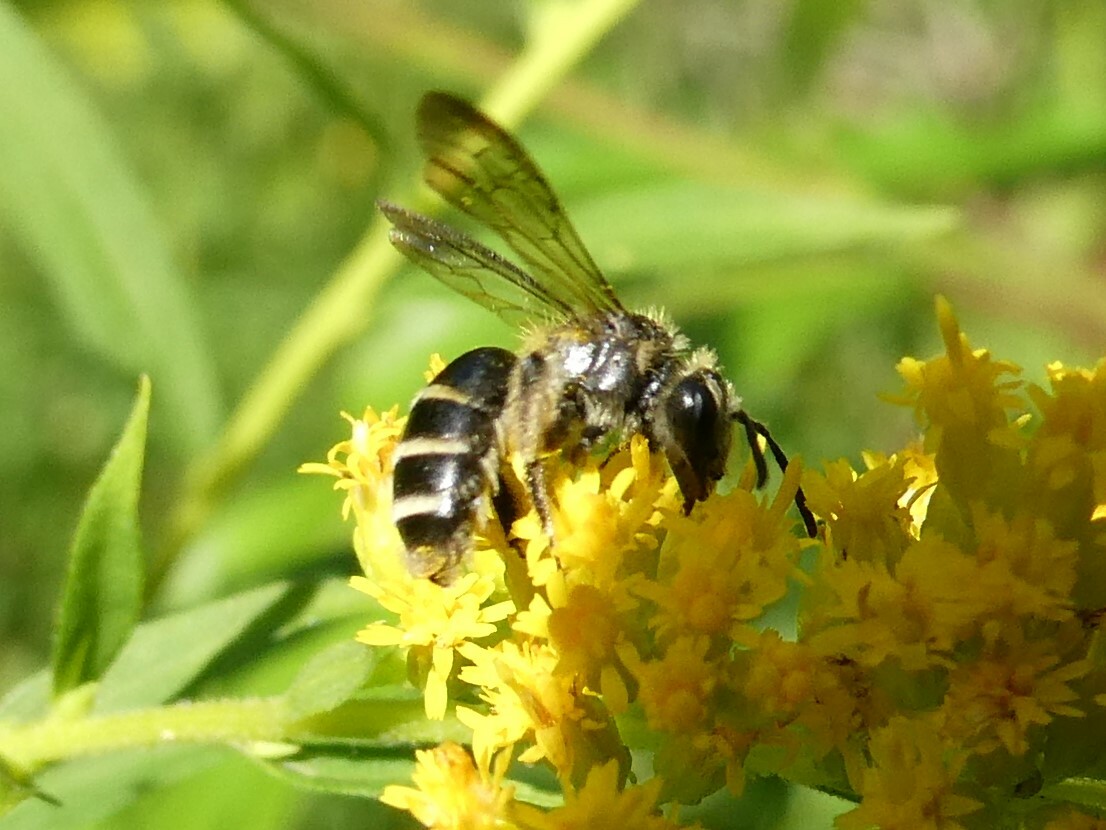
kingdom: Animalia
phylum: Arthropoda
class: Insecta
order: Hymenoptera
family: Andrenidae
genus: Andrena
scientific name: Andrena nubecula
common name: Cloudy-winged mining bee
